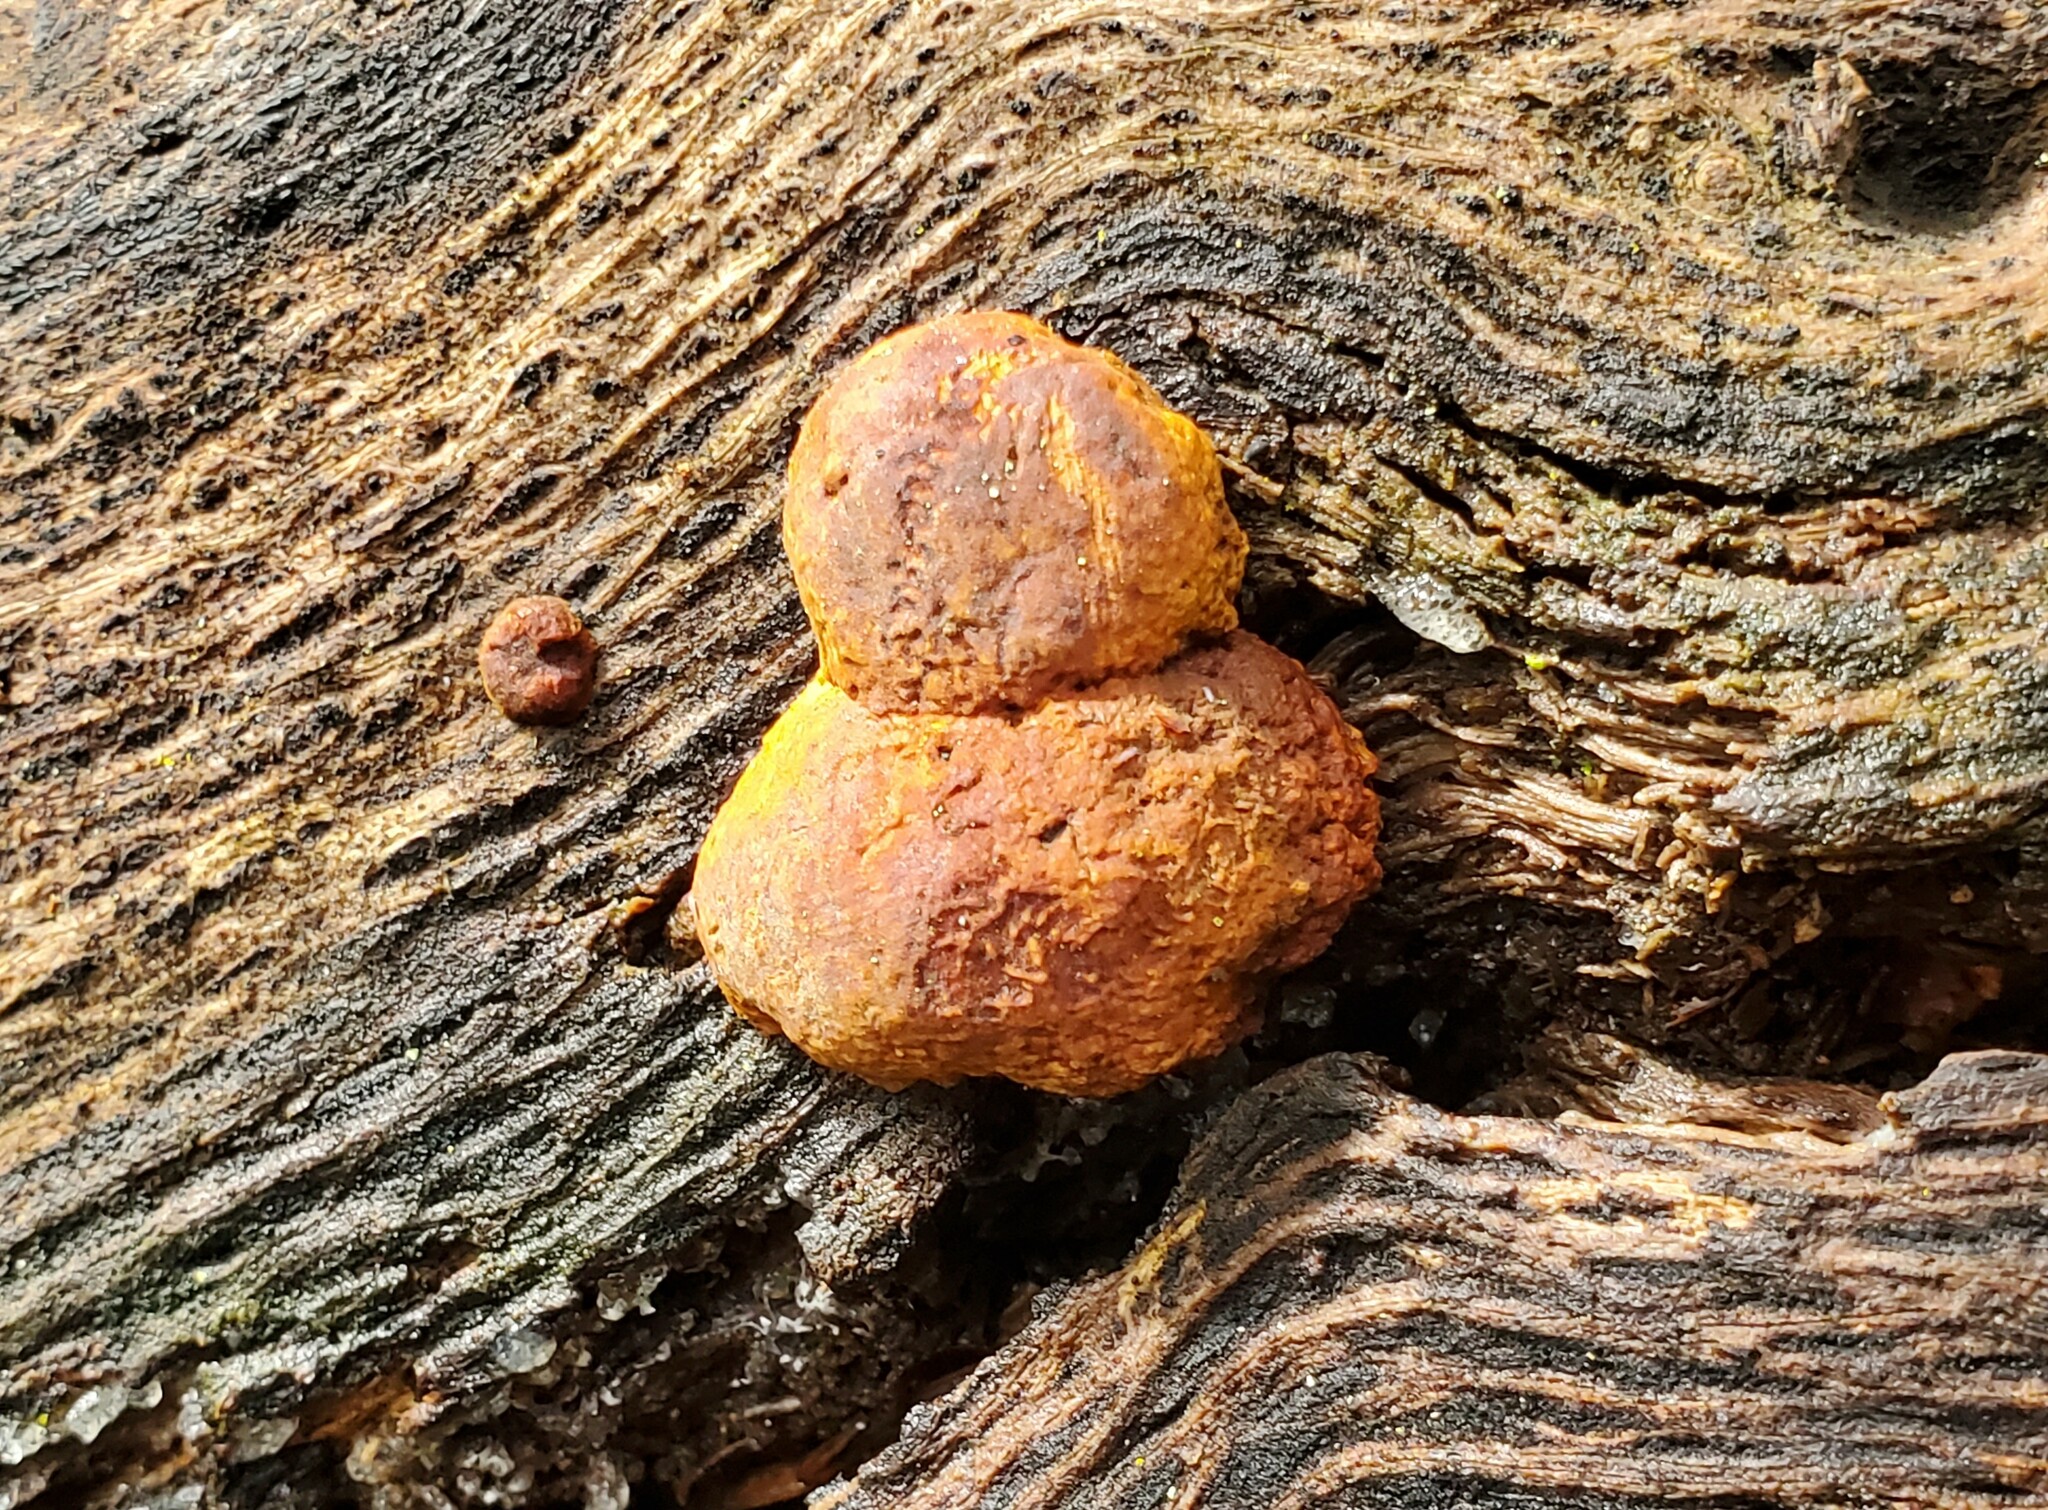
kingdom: Fungi
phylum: Basidiomycota
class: Agaricomycetes
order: Hymenochaetales
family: Hymenochaetaceae
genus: Phellinus
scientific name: Phellinus gilvus
